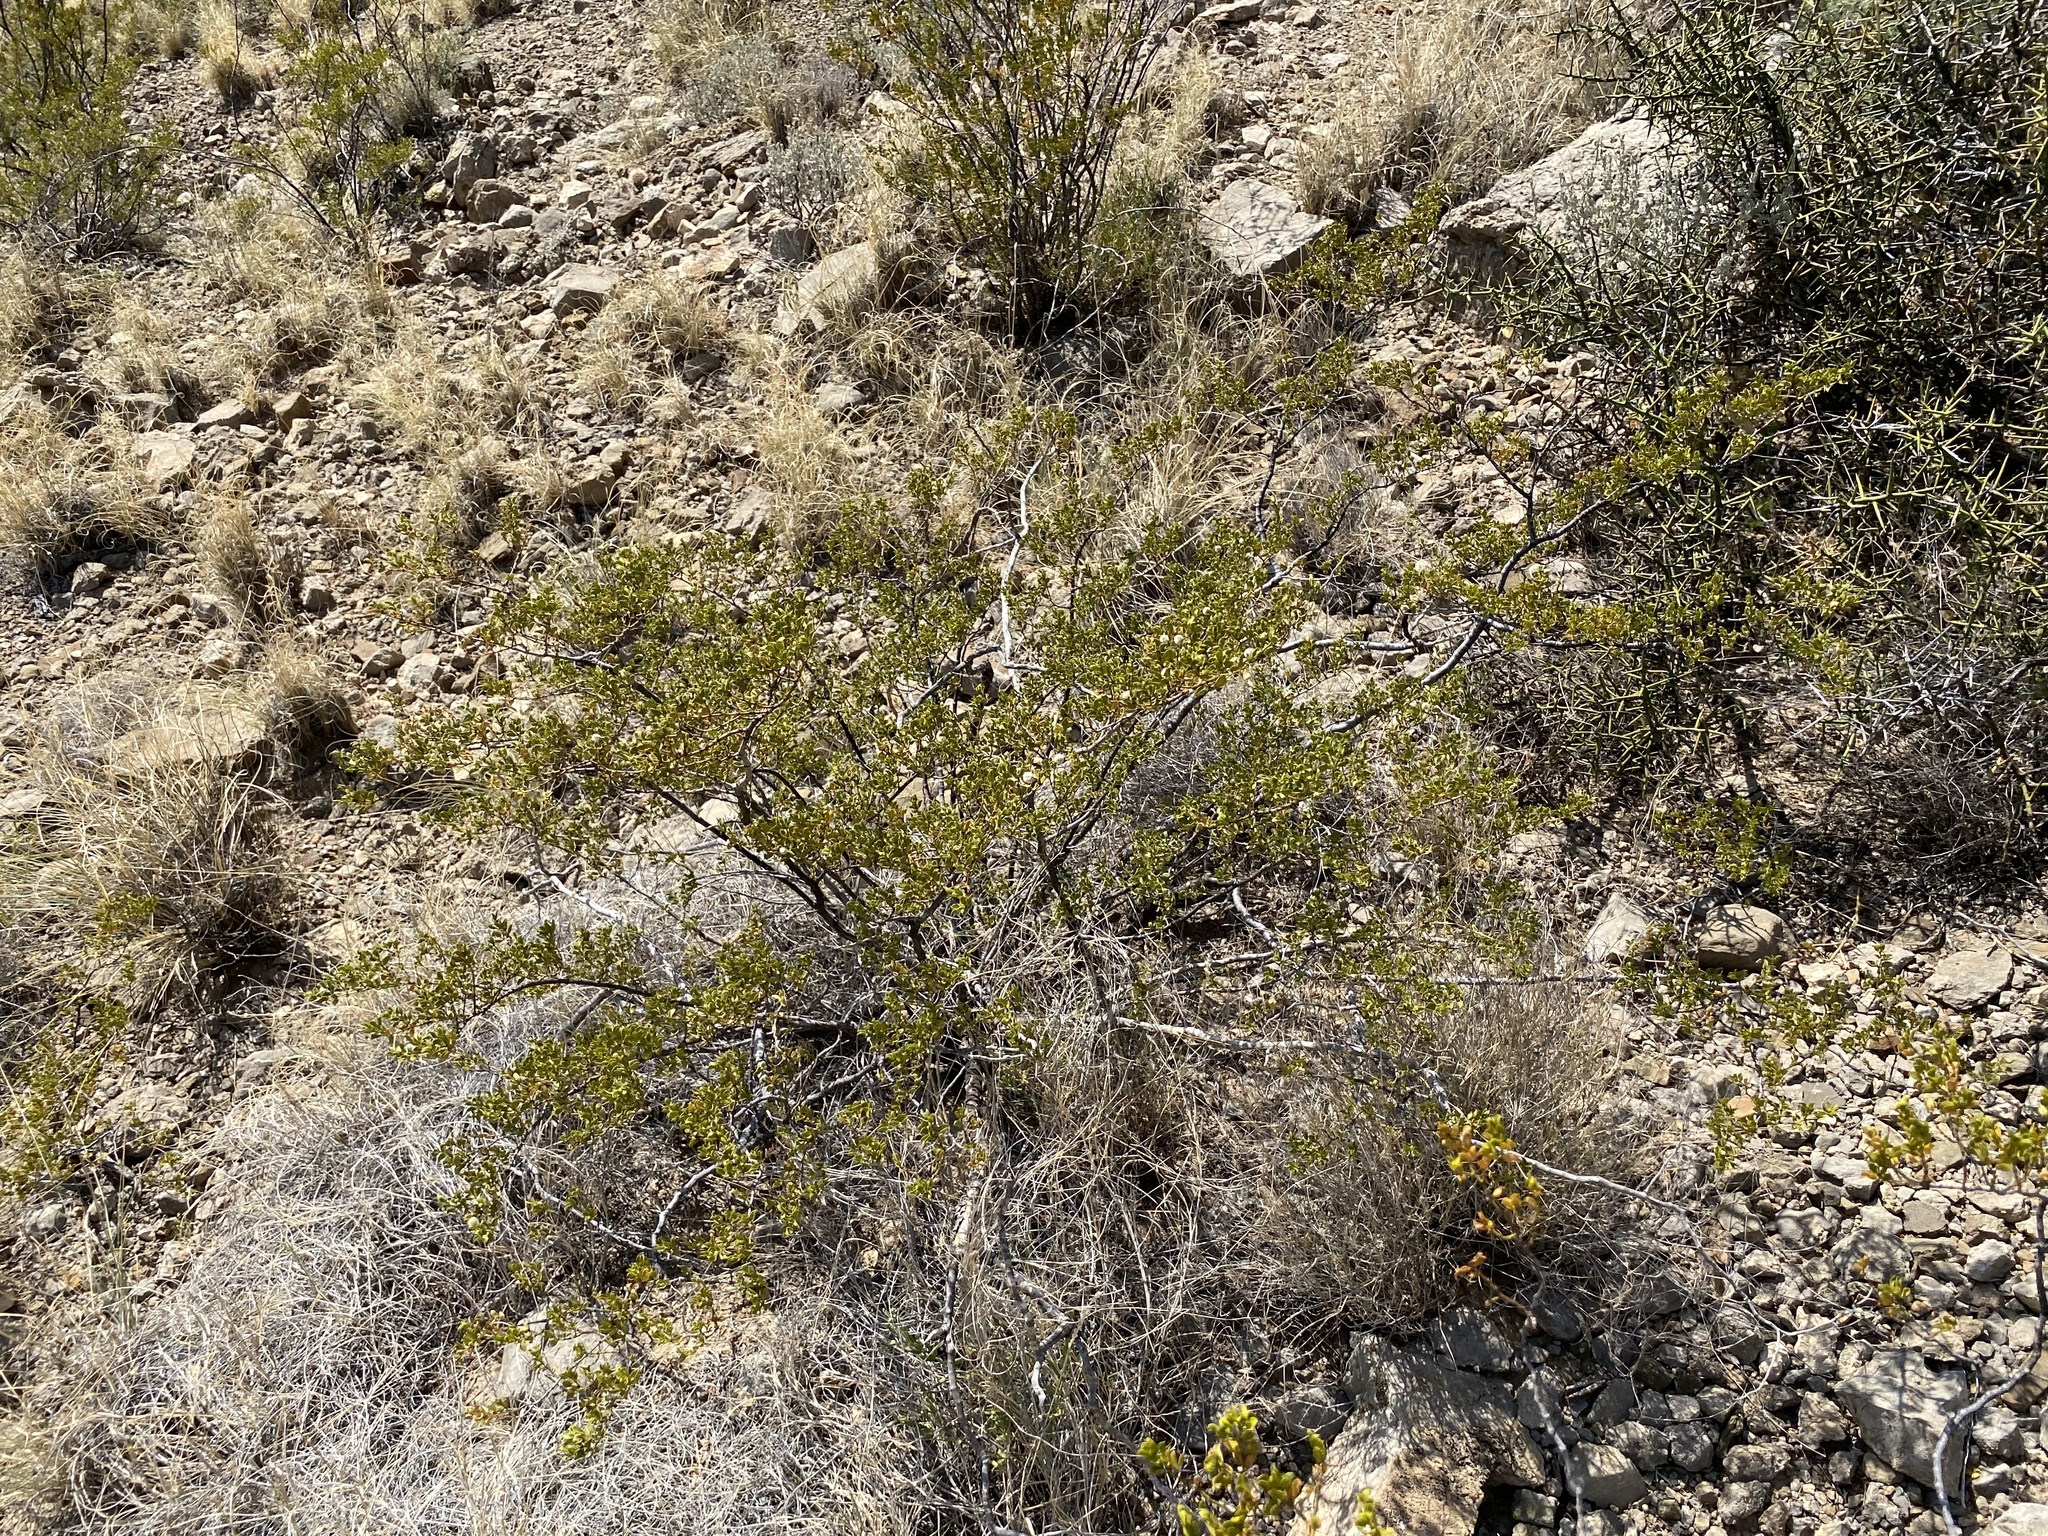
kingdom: Plantae
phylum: Tracheophyta
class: Magnoliopsida
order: Zygophyllales
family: Zygophyllaceae
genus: Larrea
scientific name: Larrea tridentata
